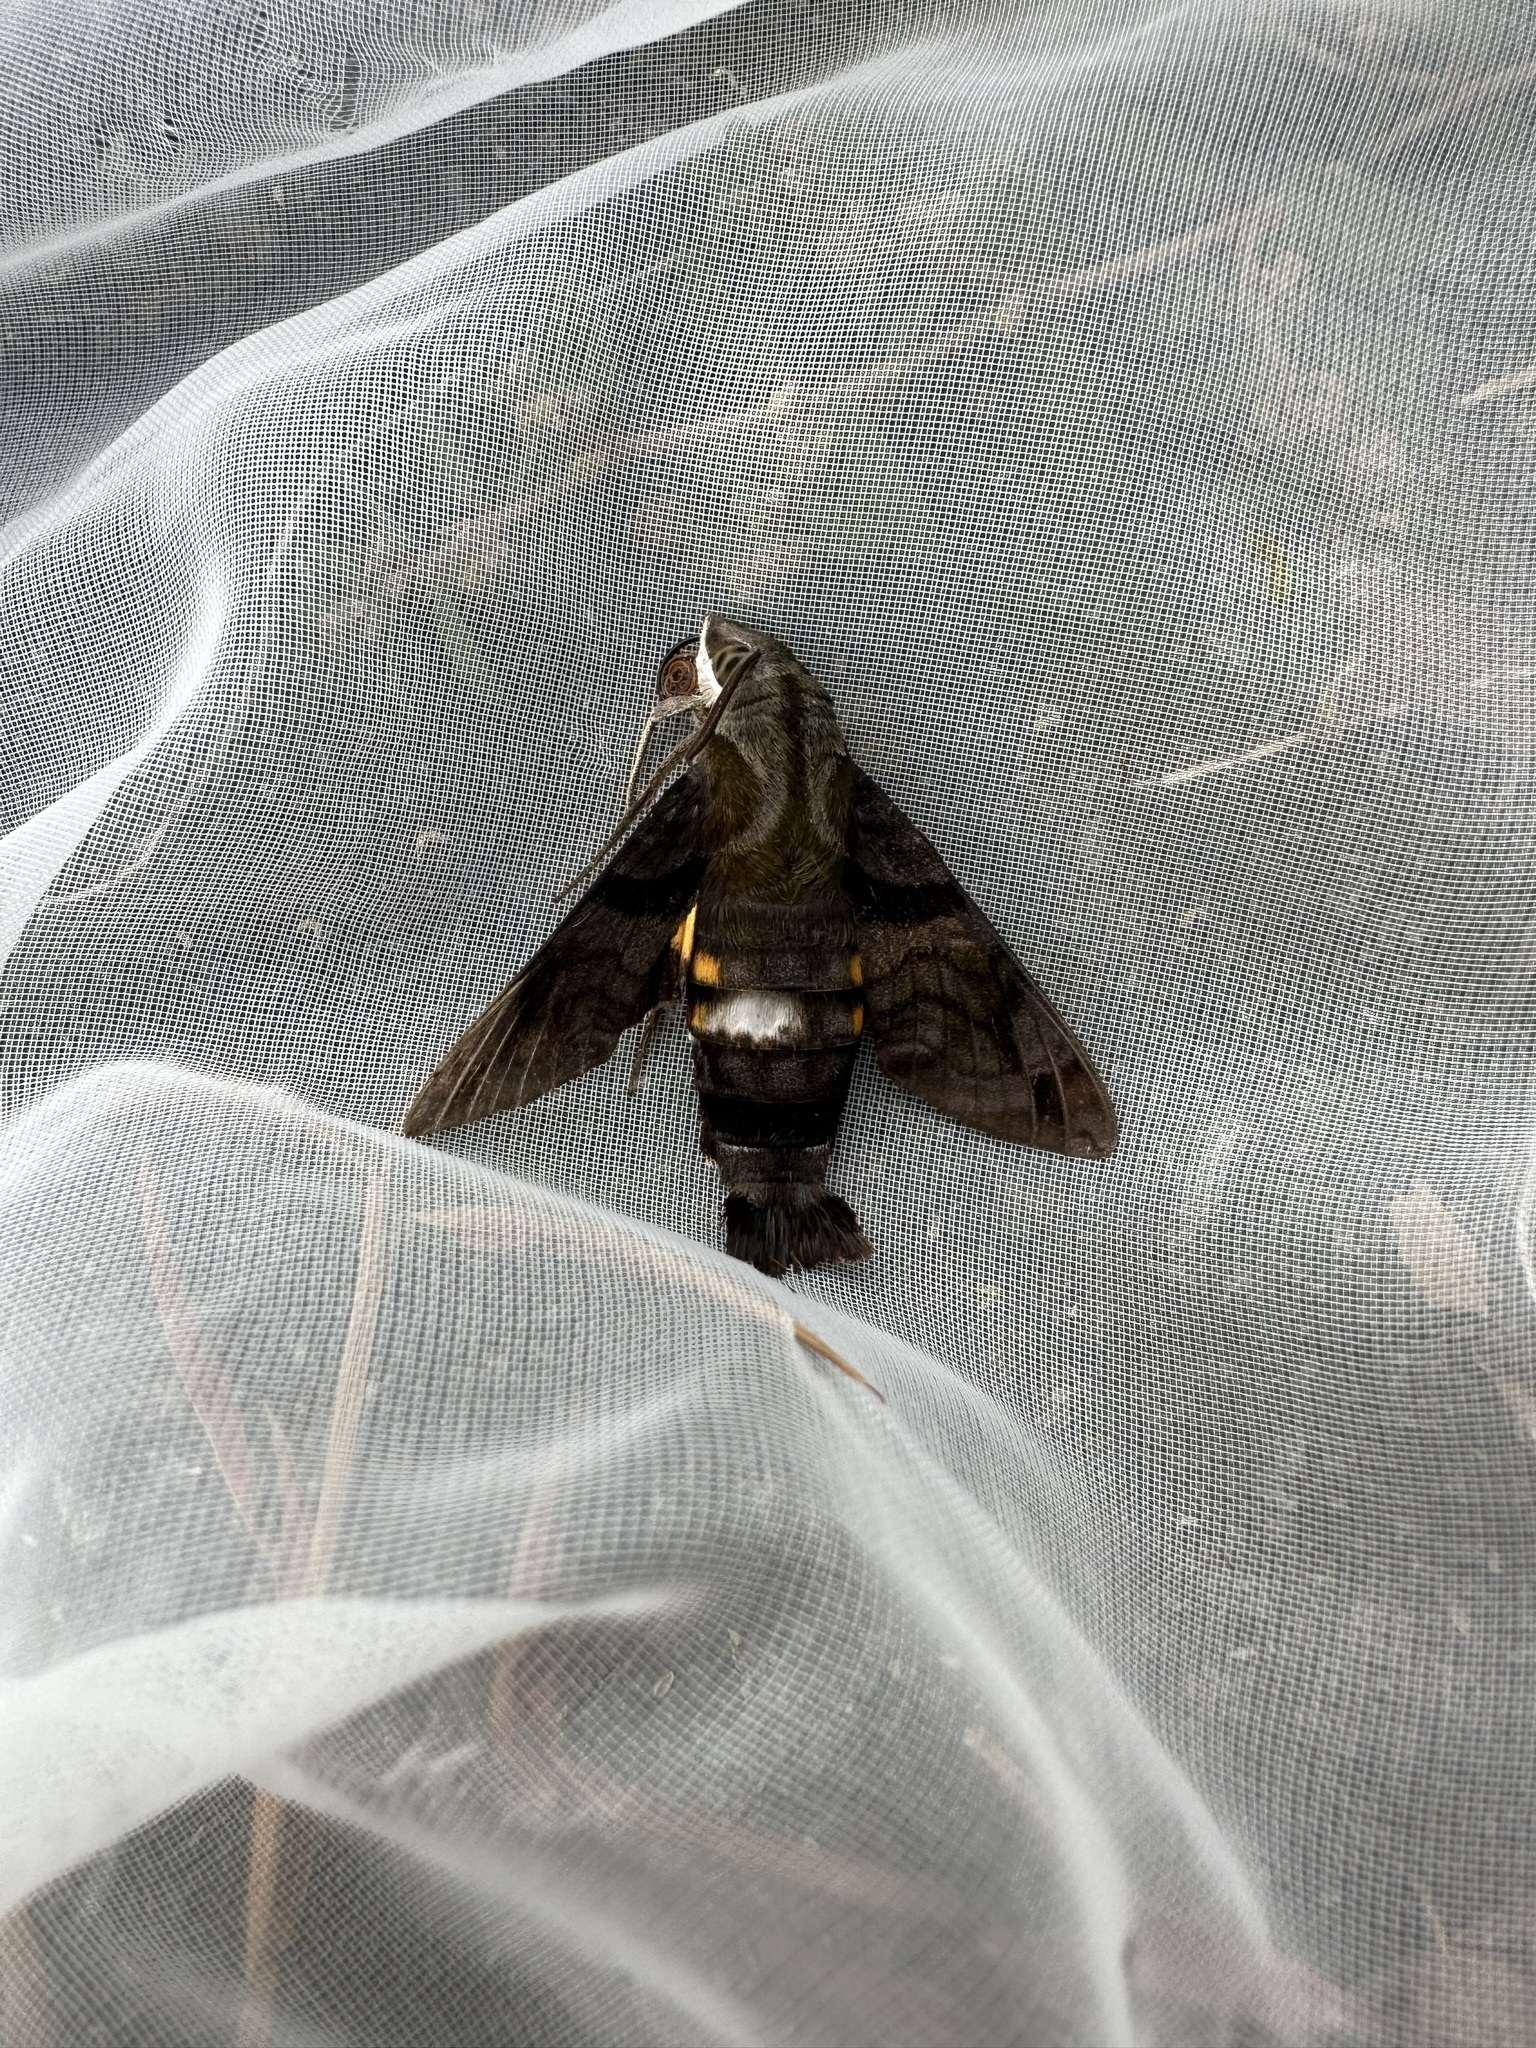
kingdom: Animalia
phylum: Arthropoda
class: Insecta
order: Lepidoptera
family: Sphingidae
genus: Macroglossum
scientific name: Macroglossum pyrrhosticta
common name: Hummingbird hawk moth
